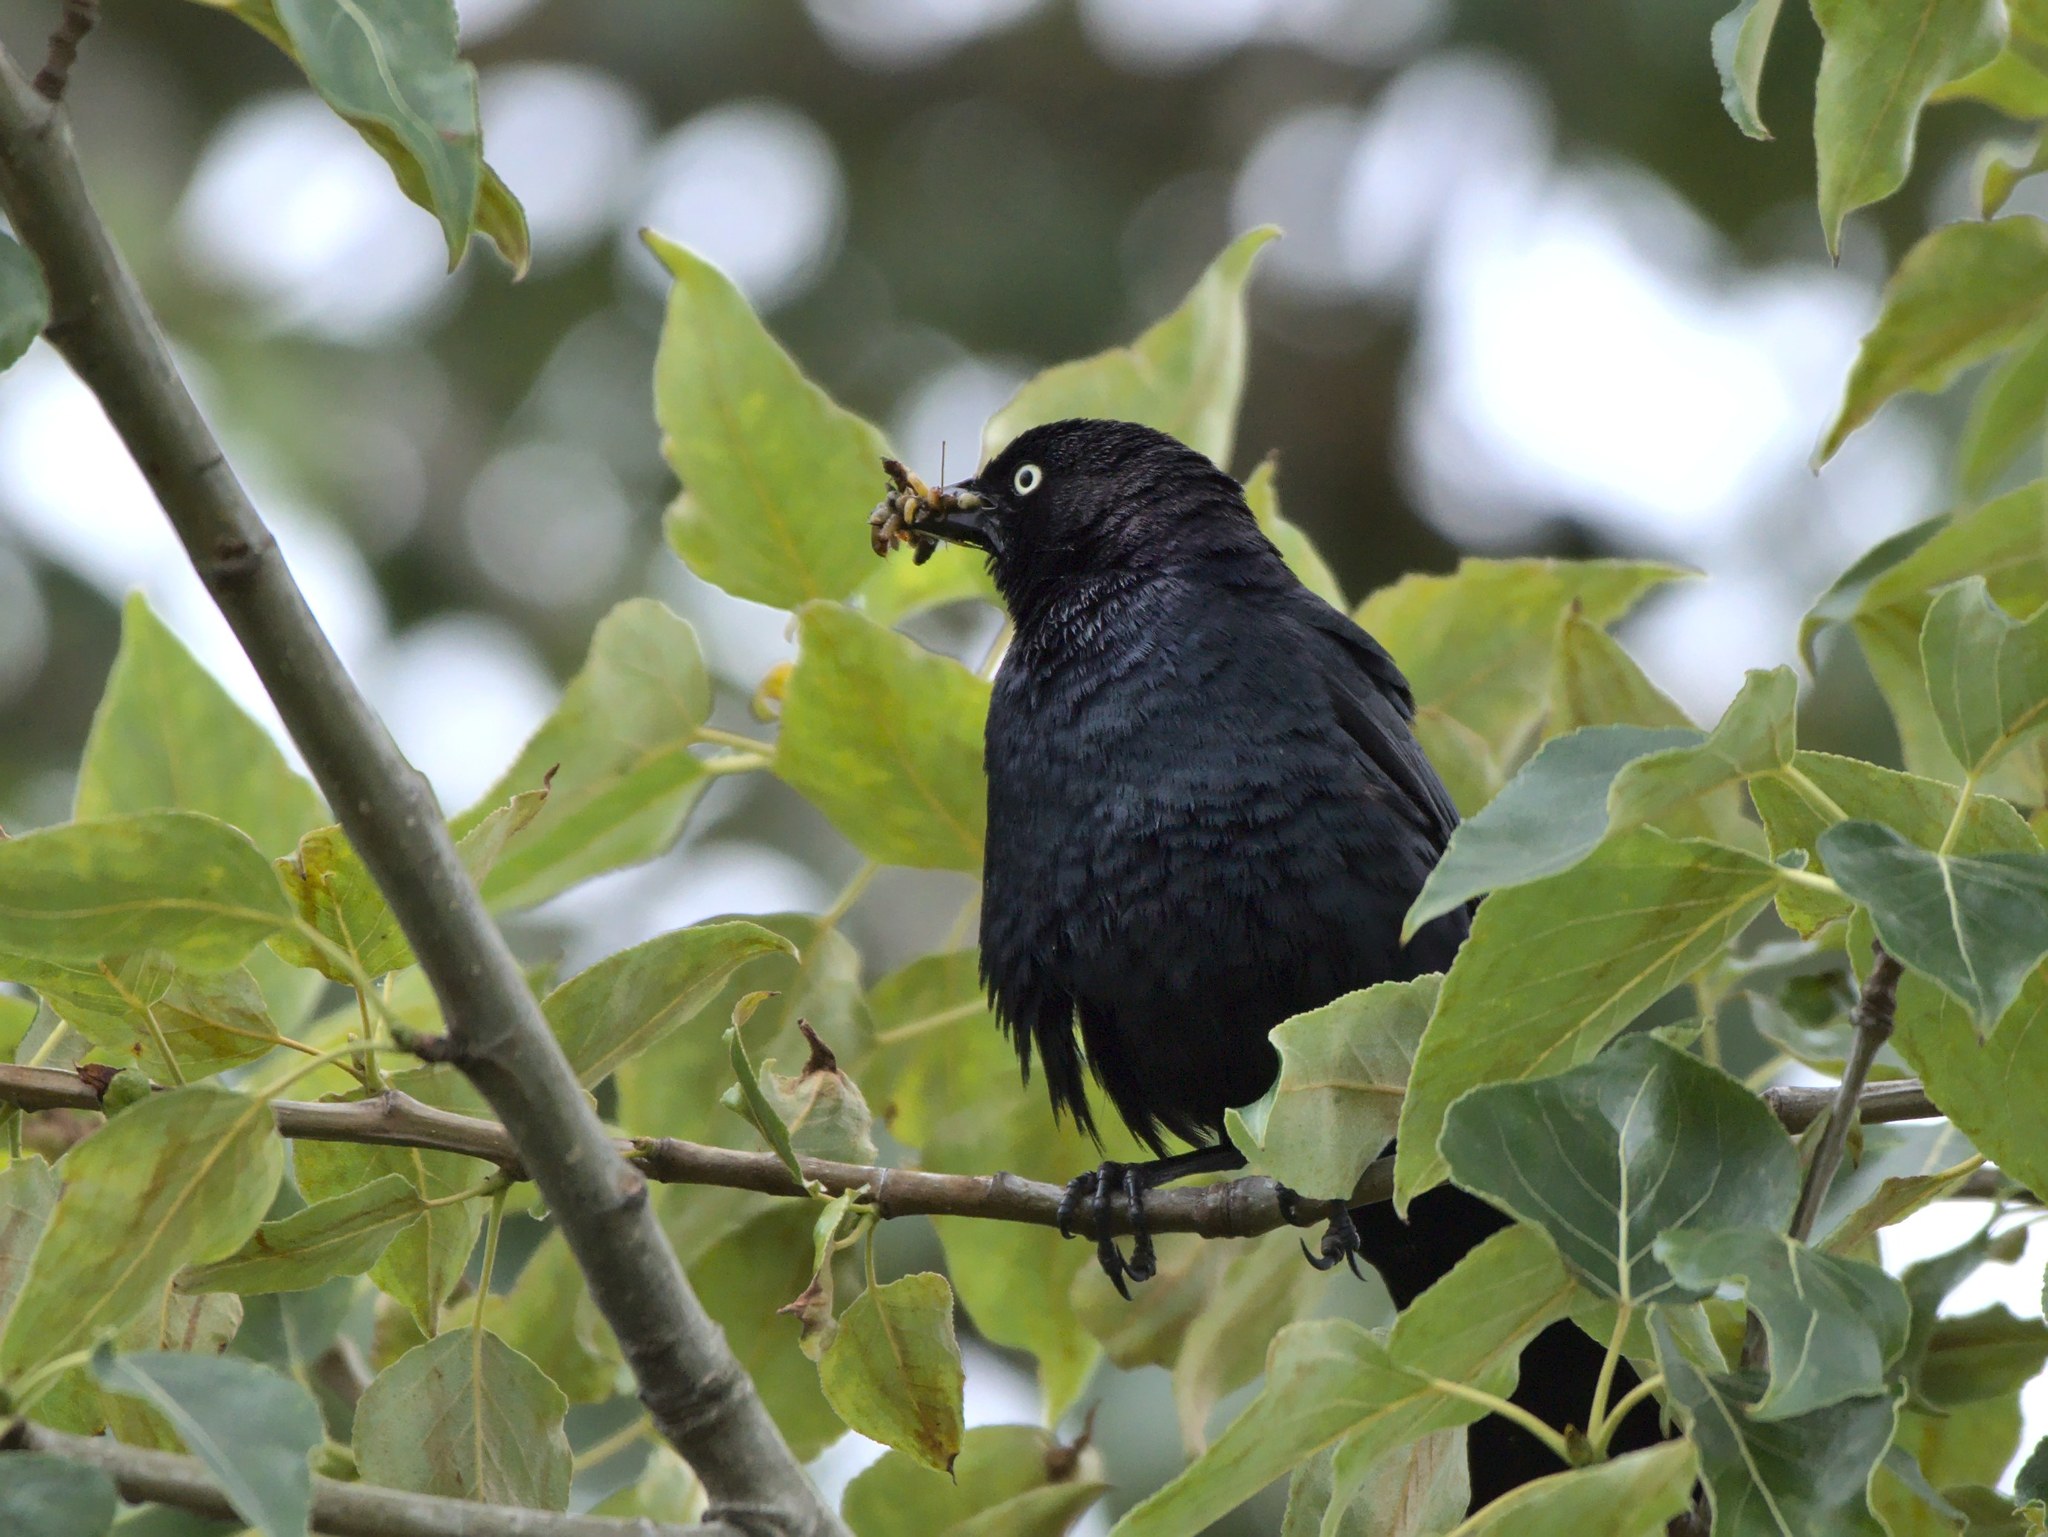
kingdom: Animalia
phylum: Chordata
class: Aves
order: Passeriformes
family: Icteridae
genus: Euphagus
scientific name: Euphagus cyanocephalus
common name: Brewer's blackbird
